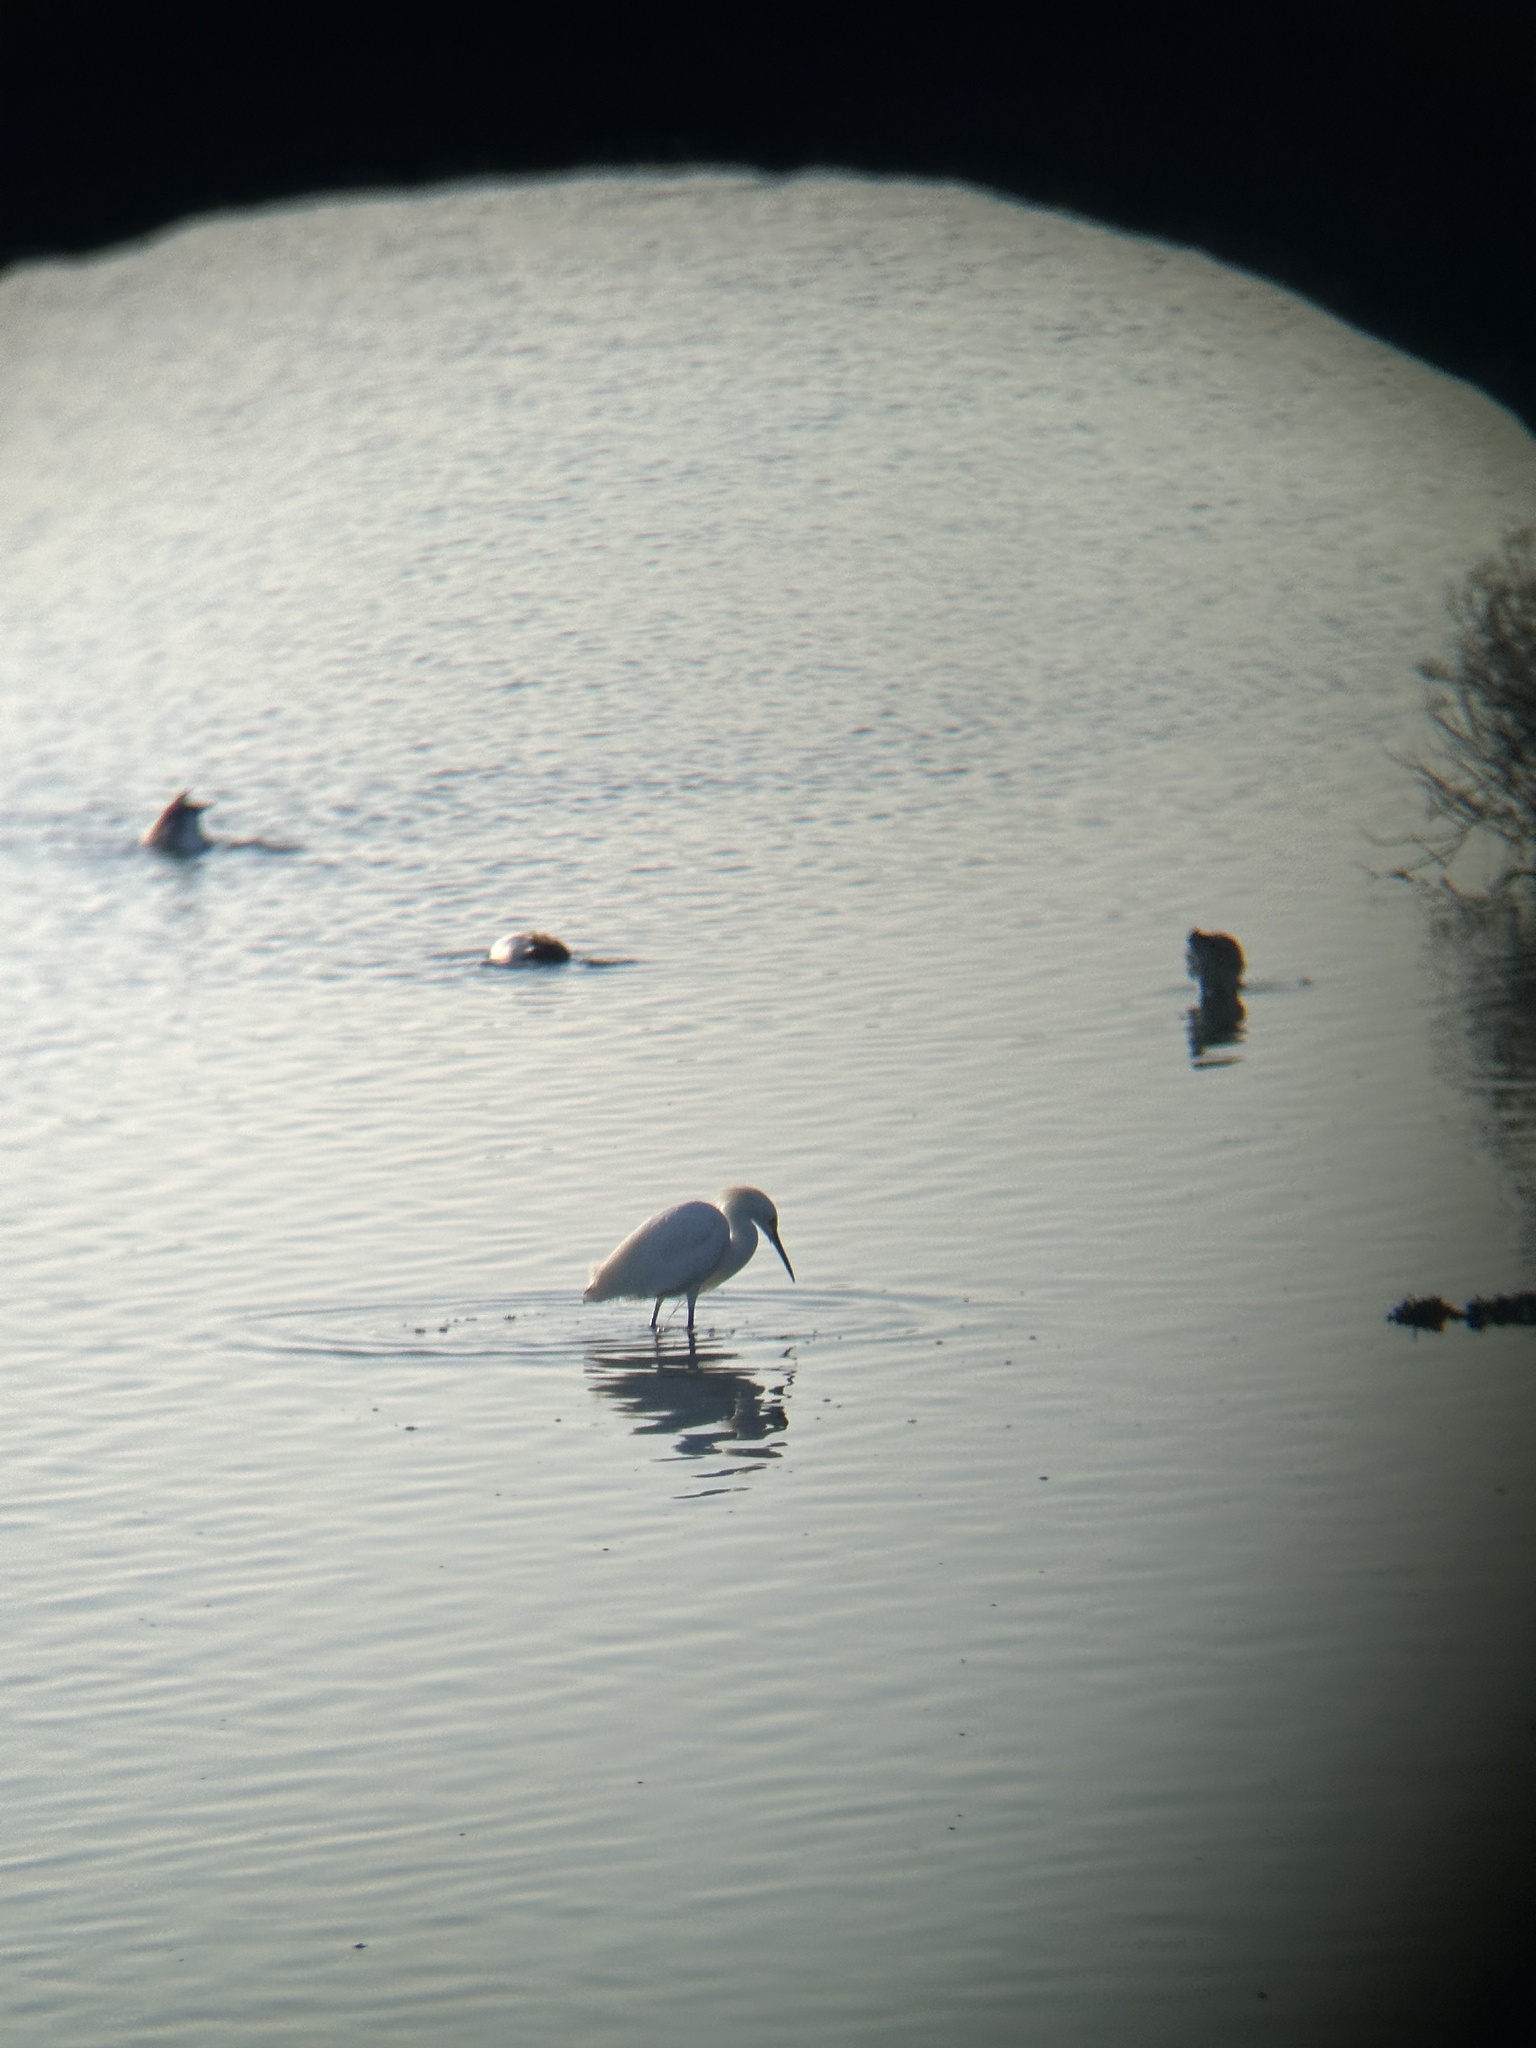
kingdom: Animalia
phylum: Chordata
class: Aves
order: Pelecaniformes
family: Ardeidae
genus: Egretta
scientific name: Egretta thula
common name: Snowy egret
